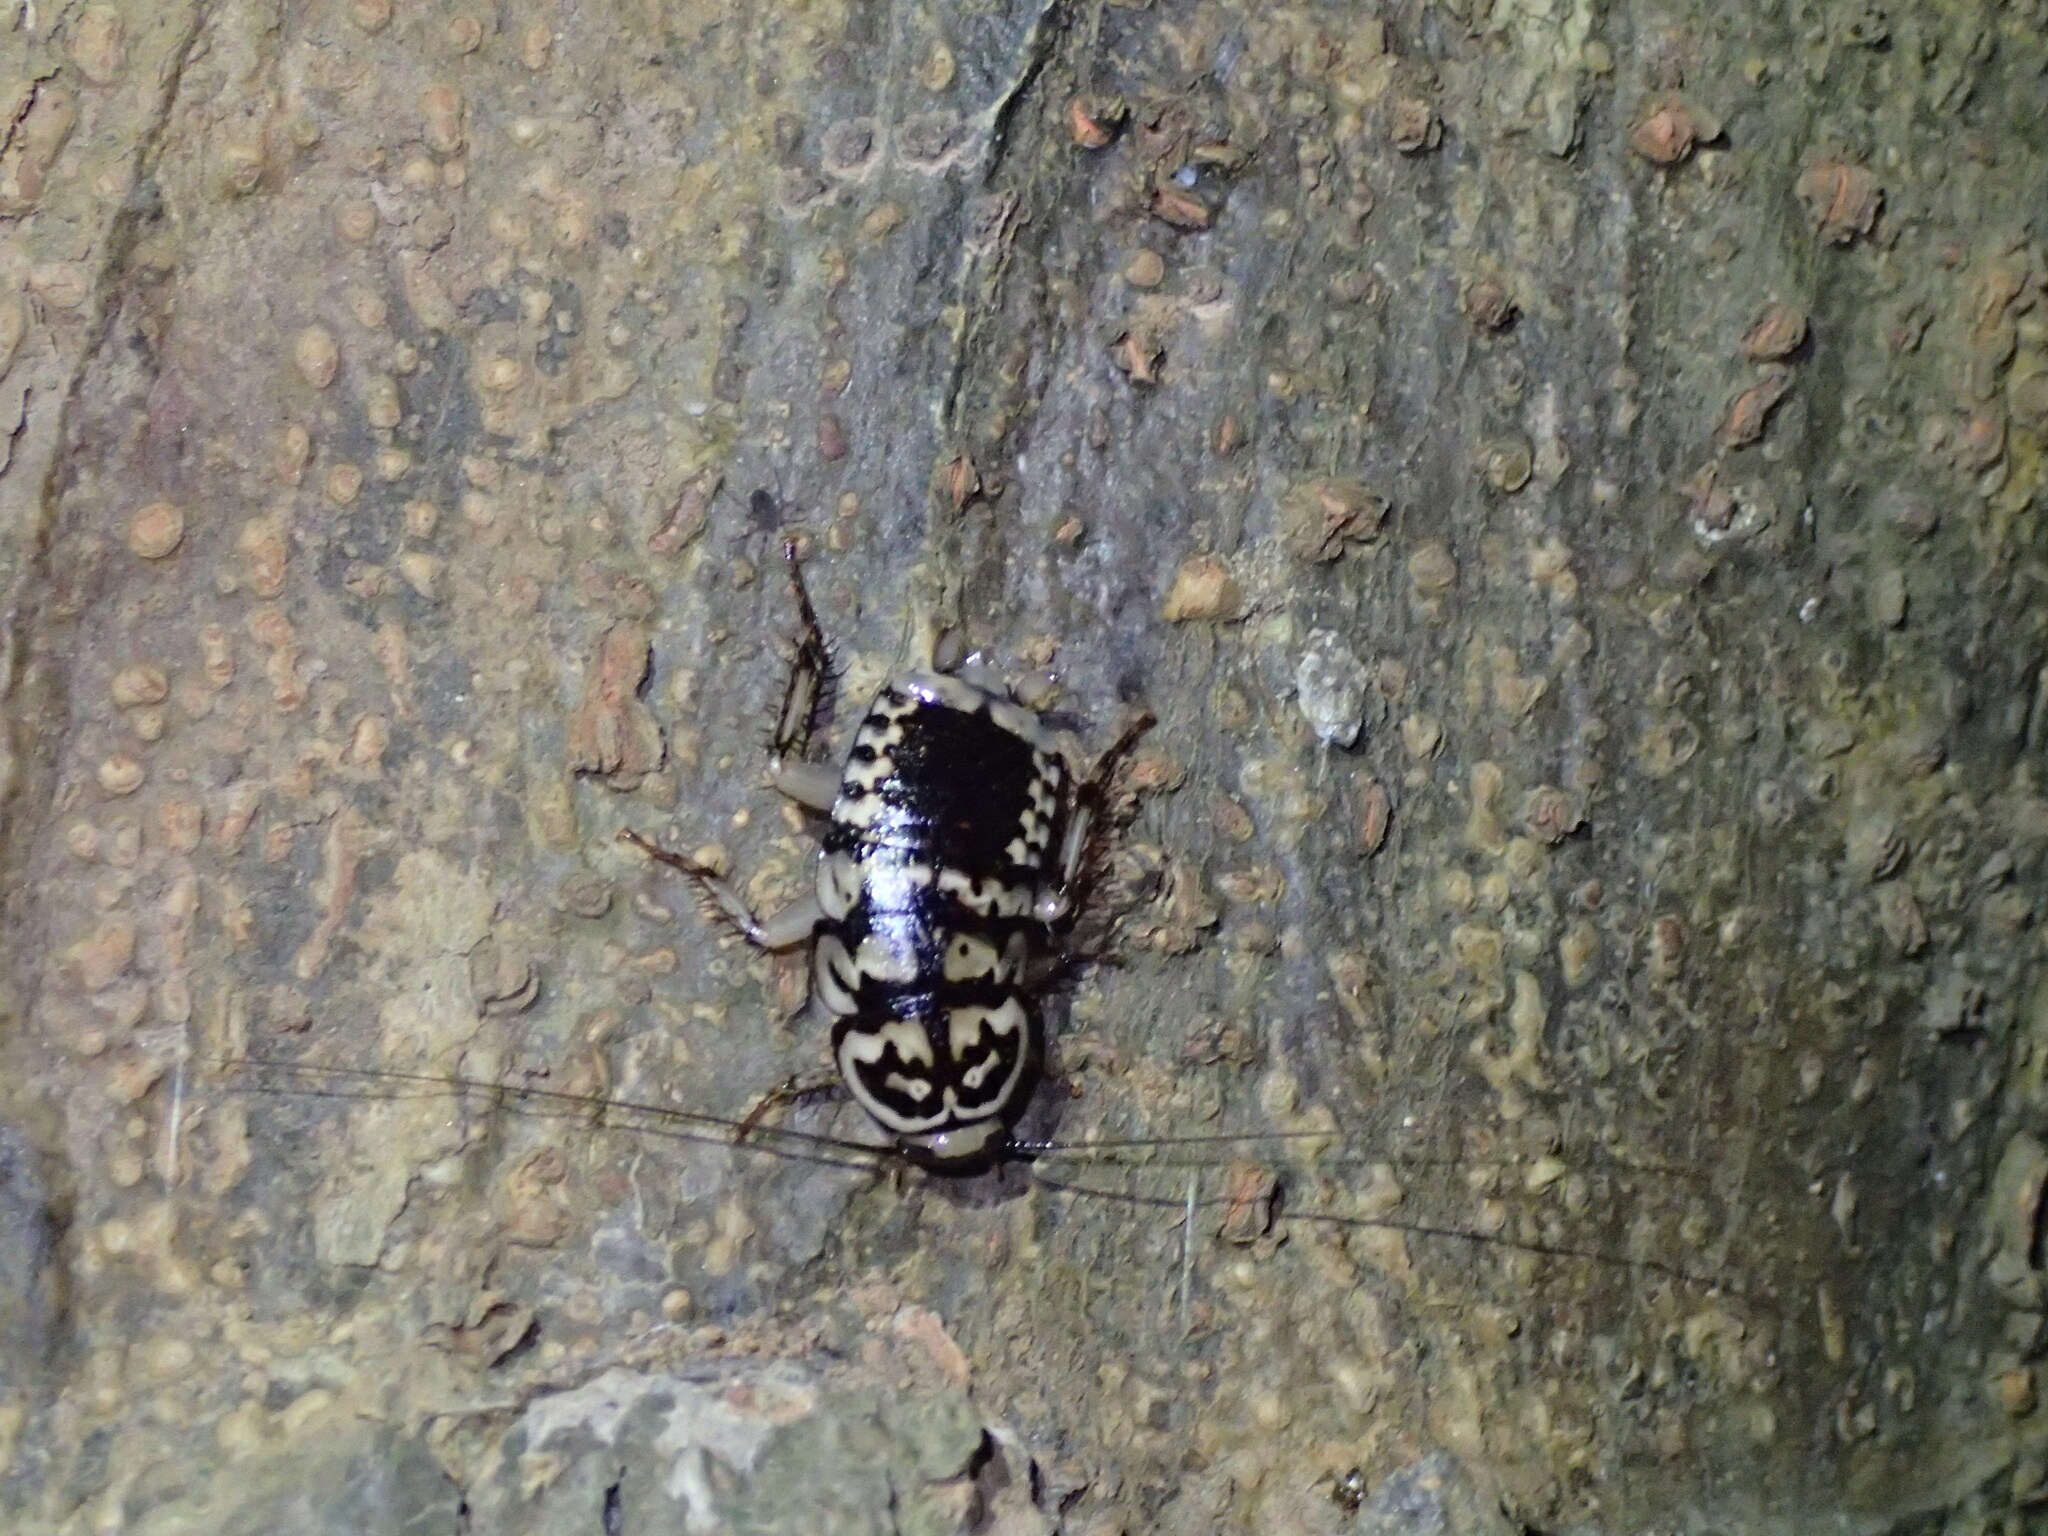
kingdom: Animalia
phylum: Arthropoda
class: Insecta
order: Blattodea
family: Blattidae
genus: Neostylopyga
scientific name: Neostylopyga rhombifolia
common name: Harlequin cockroach
